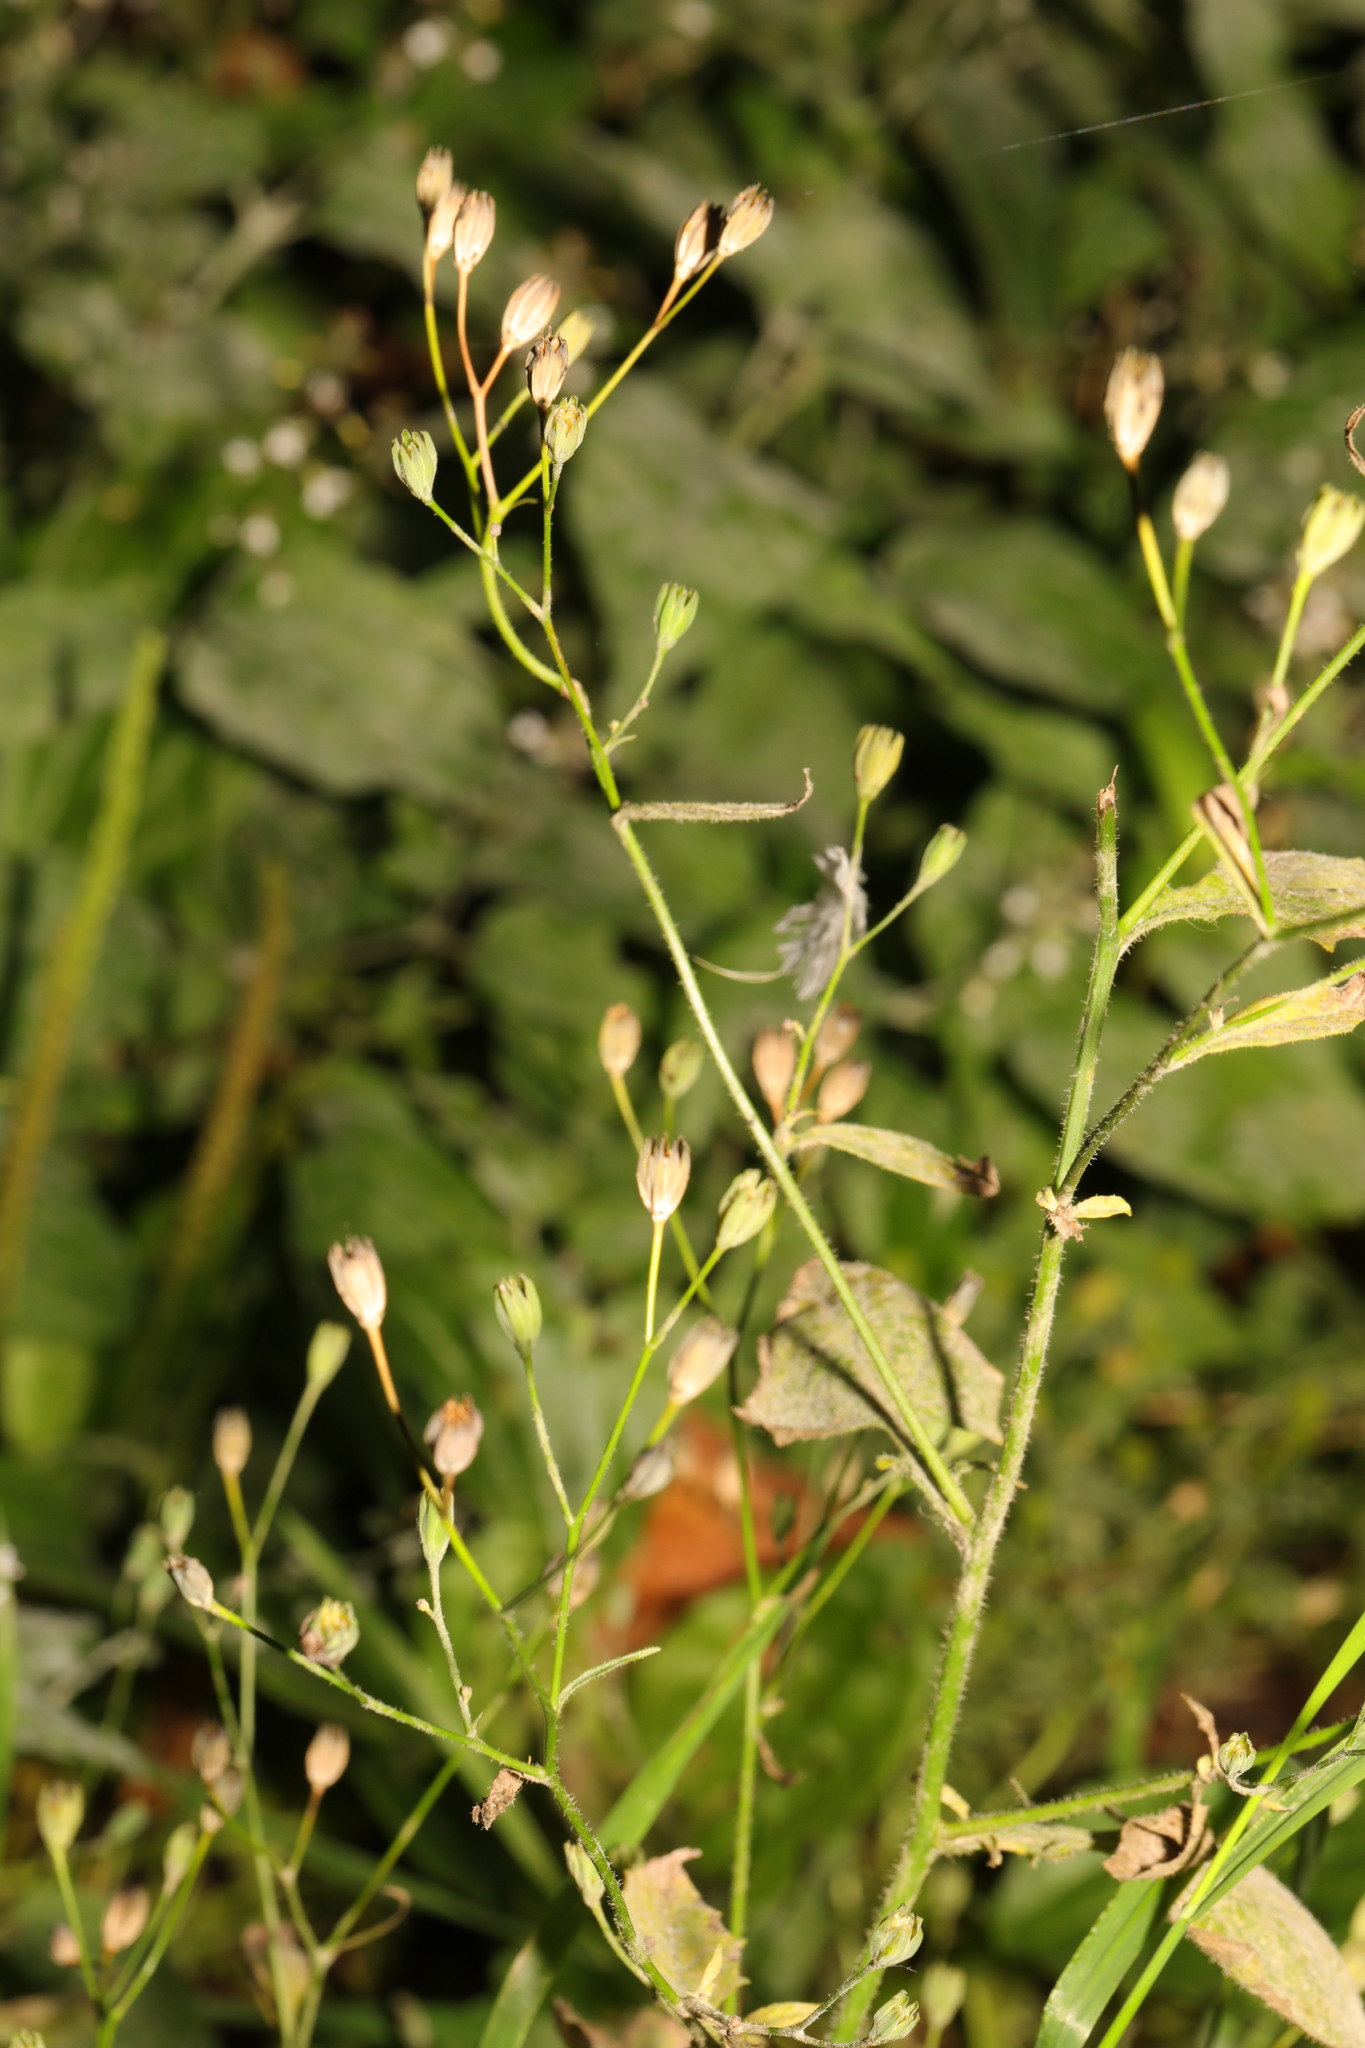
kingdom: Plantae
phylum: Tracheophyta
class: Magnoliopsida
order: Asterales
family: Asteraceae
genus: Lapsana
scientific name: Lapsana communis
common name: Nipplewort
